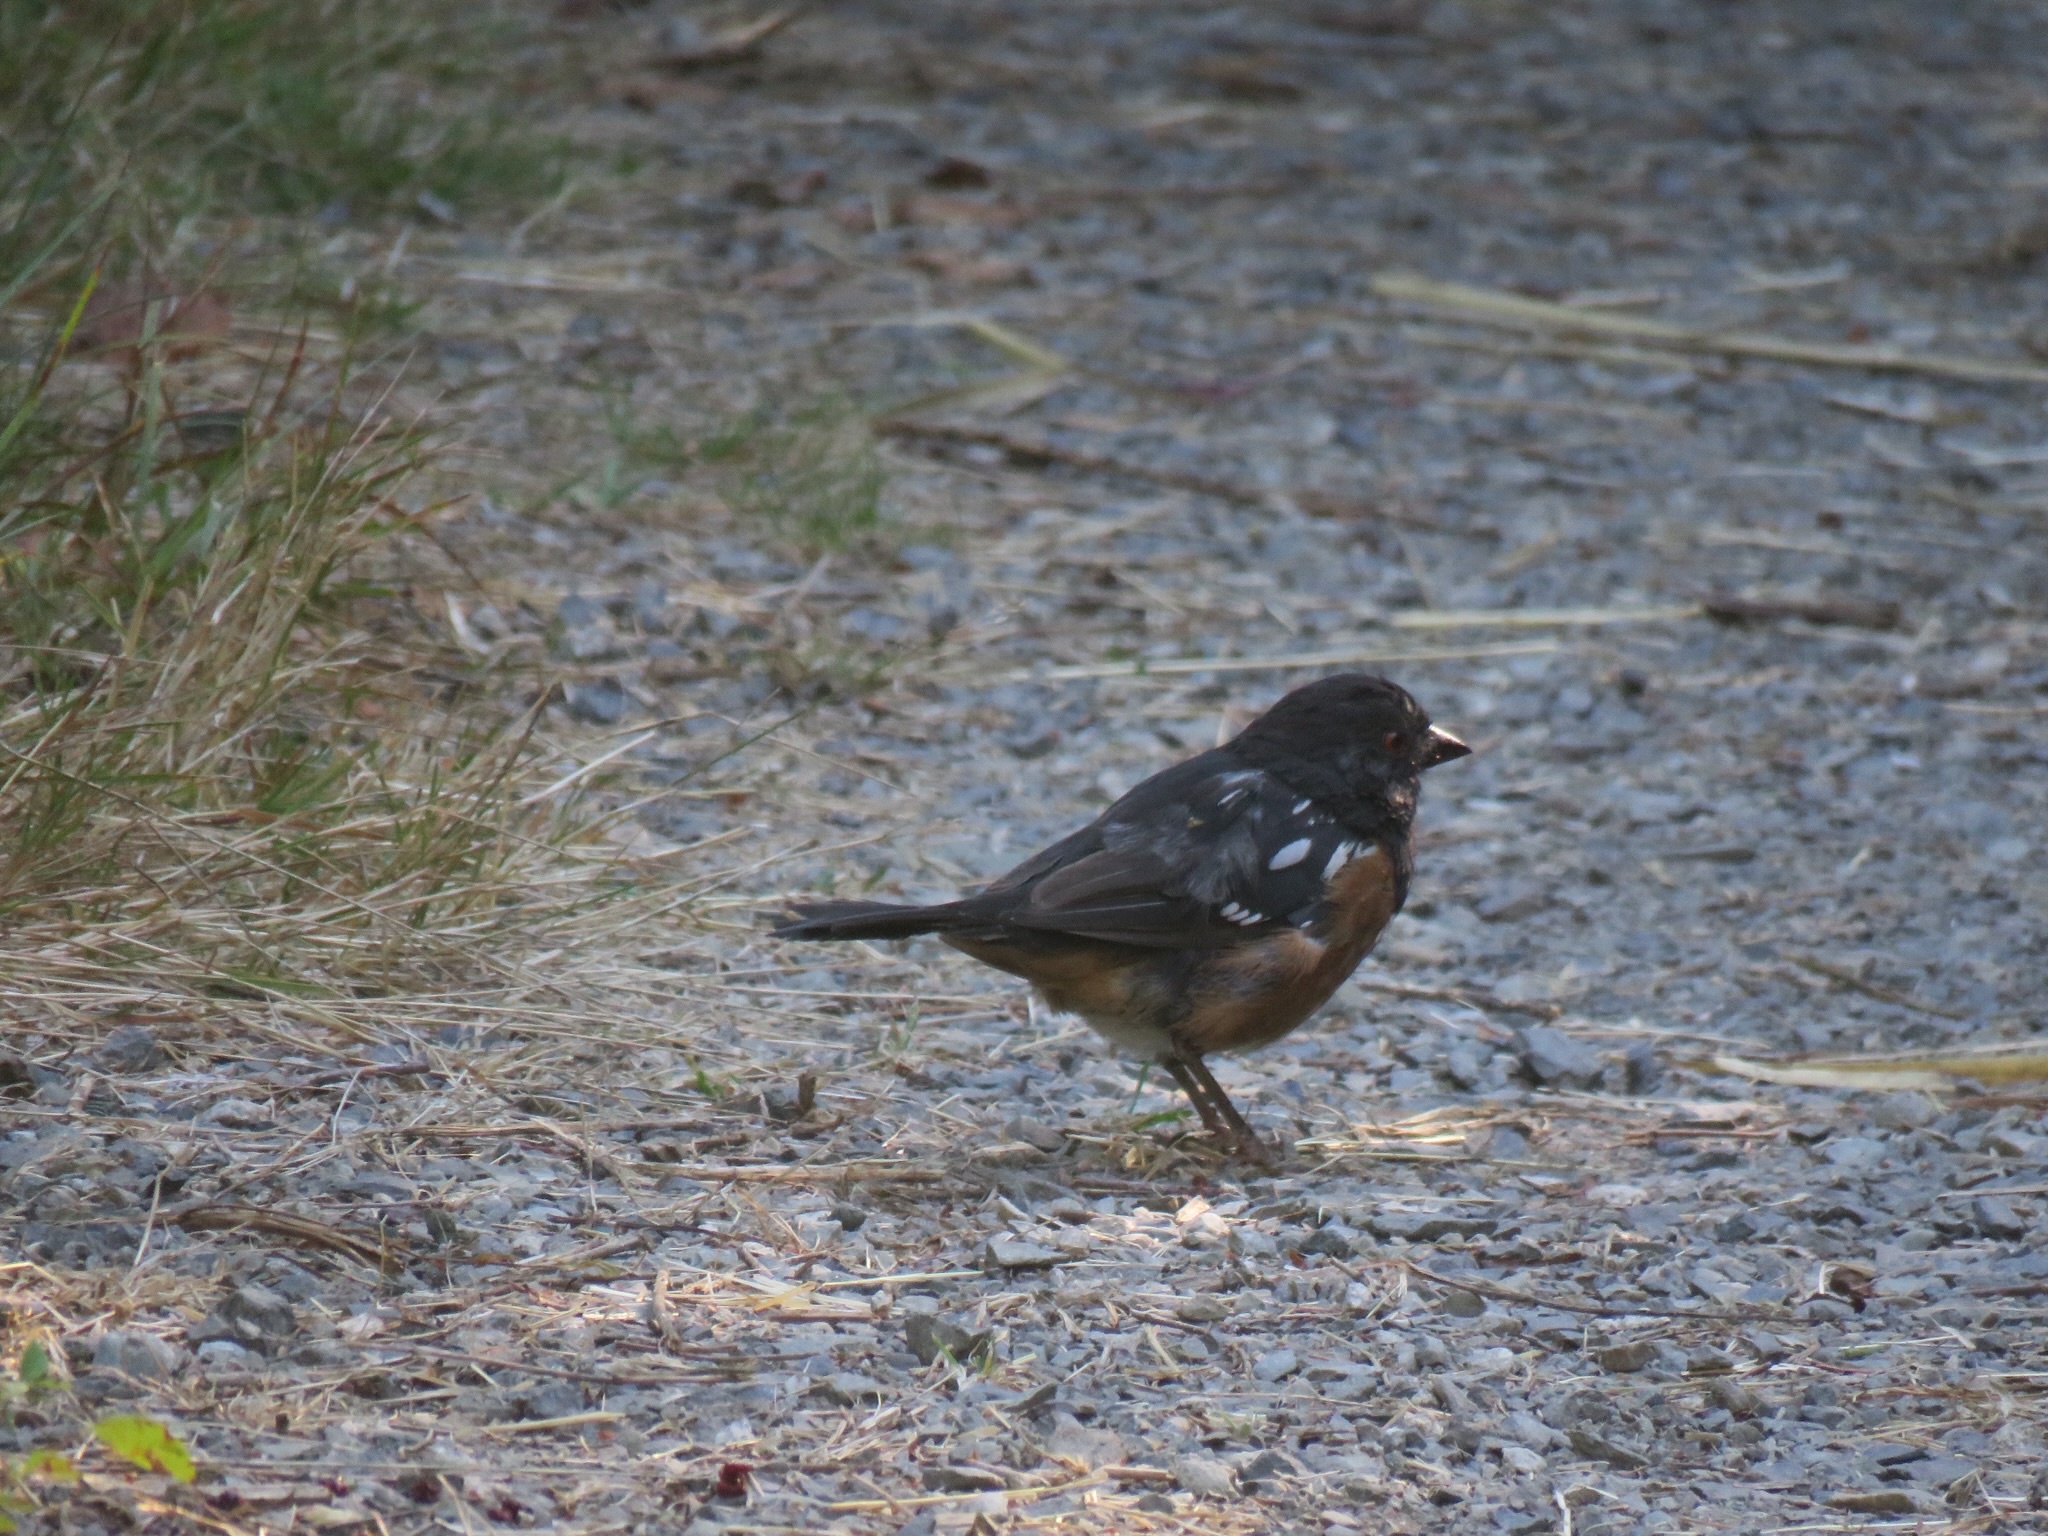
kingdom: Animalia
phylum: Chordata
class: Aves
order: Passeriformes
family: Passerellidae
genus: Pipilo
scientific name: Pipilo maculatus
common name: Spotted towhee
